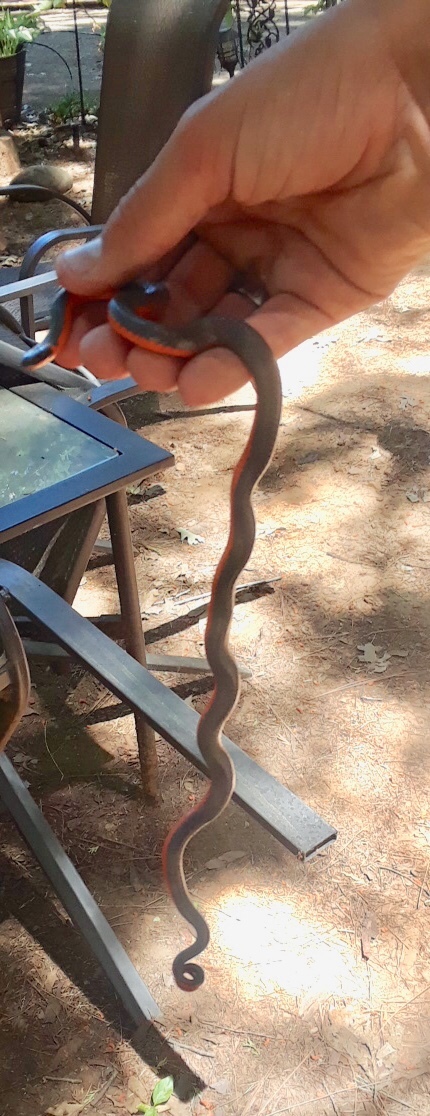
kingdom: Animalia
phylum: Chordata
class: Squamata
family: Colubridae
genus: Diadophis
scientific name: Diadophis punctatus
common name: Ringneck snake
